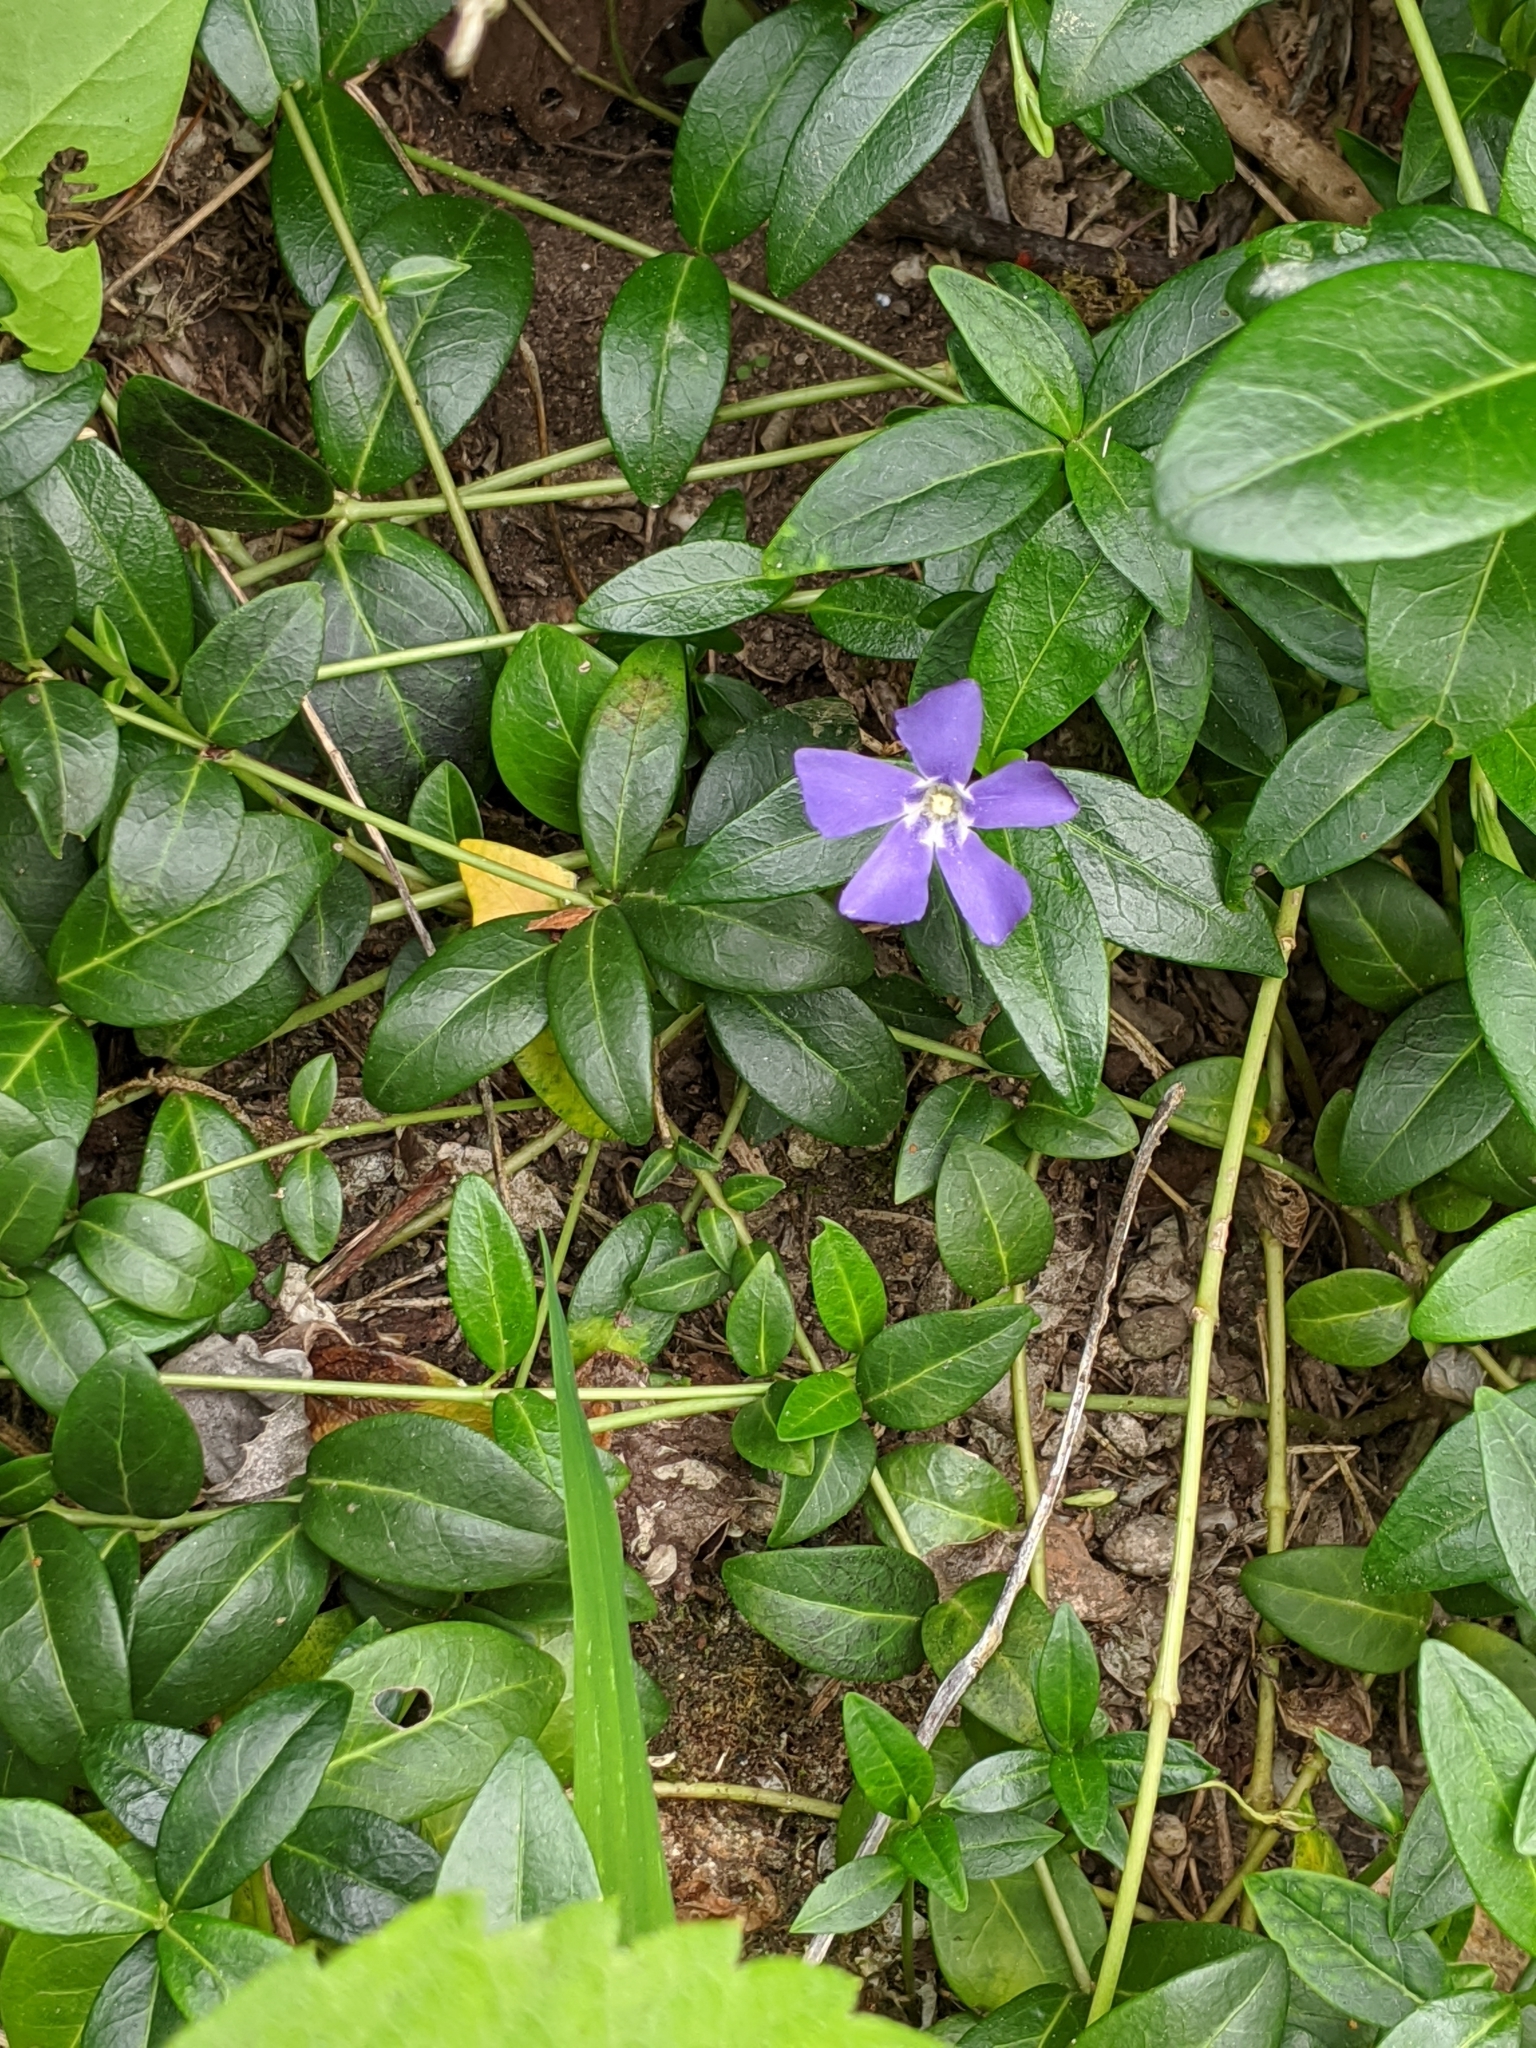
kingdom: Plantae
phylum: Tracheophyta
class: Magnoliopsida
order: Gentianales
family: Apocynaceae
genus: Vinca
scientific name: Vinca minor
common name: Lesser periwinkle
